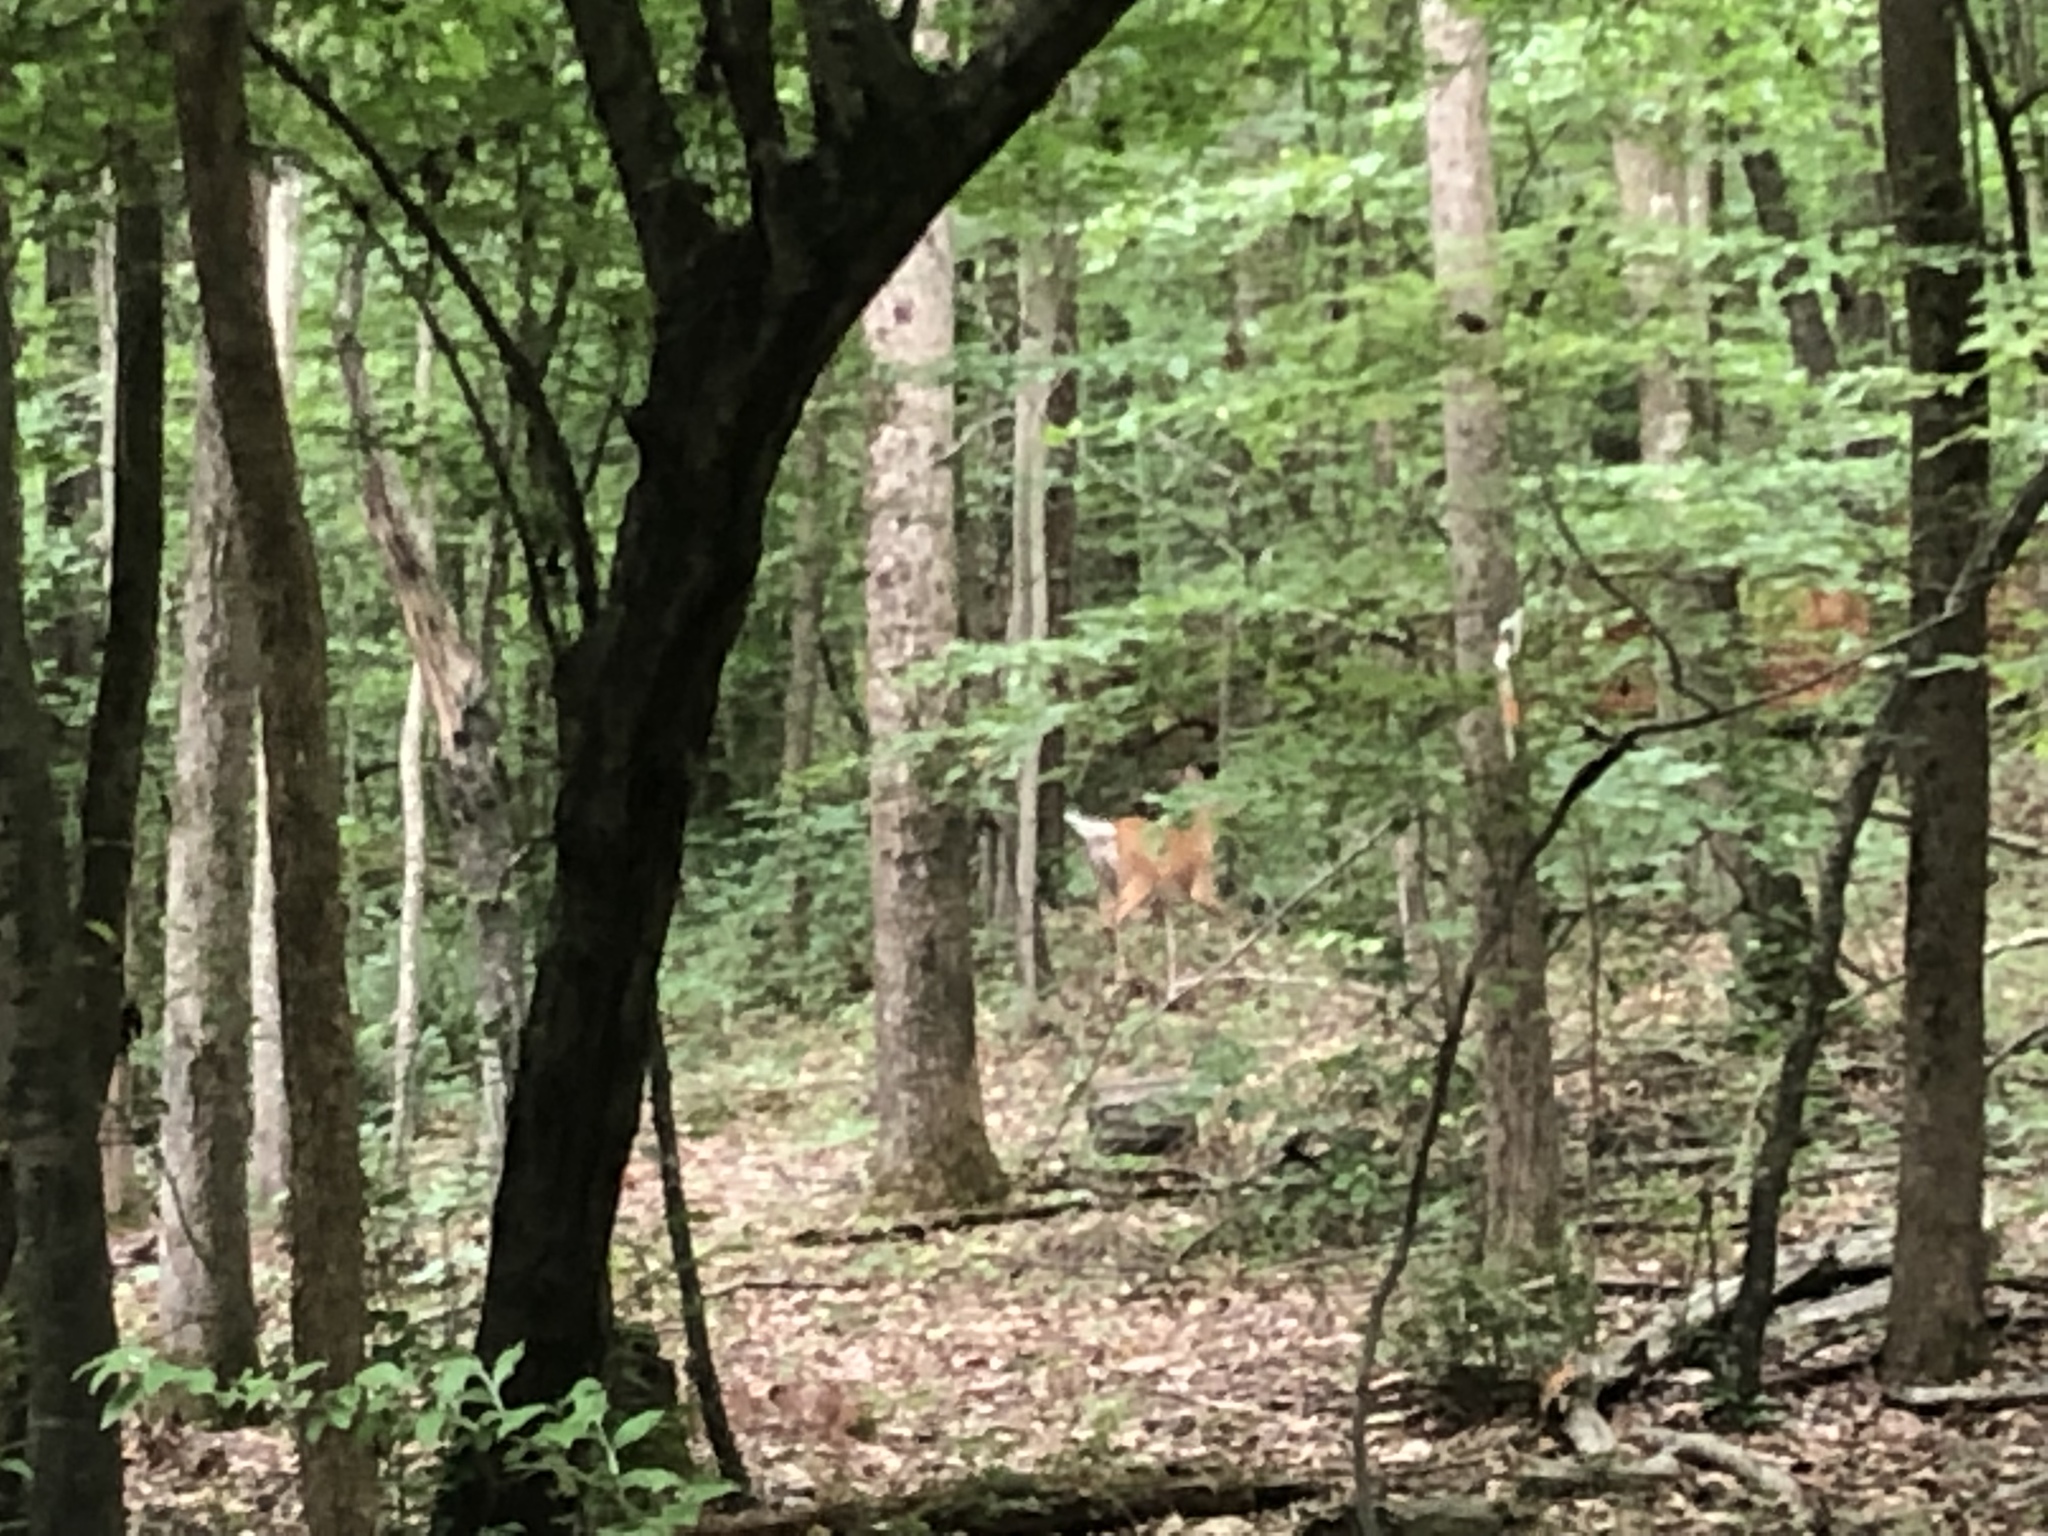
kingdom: Animalia
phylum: Chordata
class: Mammalia
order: Artiodactyla
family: Cervidae
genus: Odocoileus
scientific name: Odocoileus virginianus
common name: White-tailed deer
